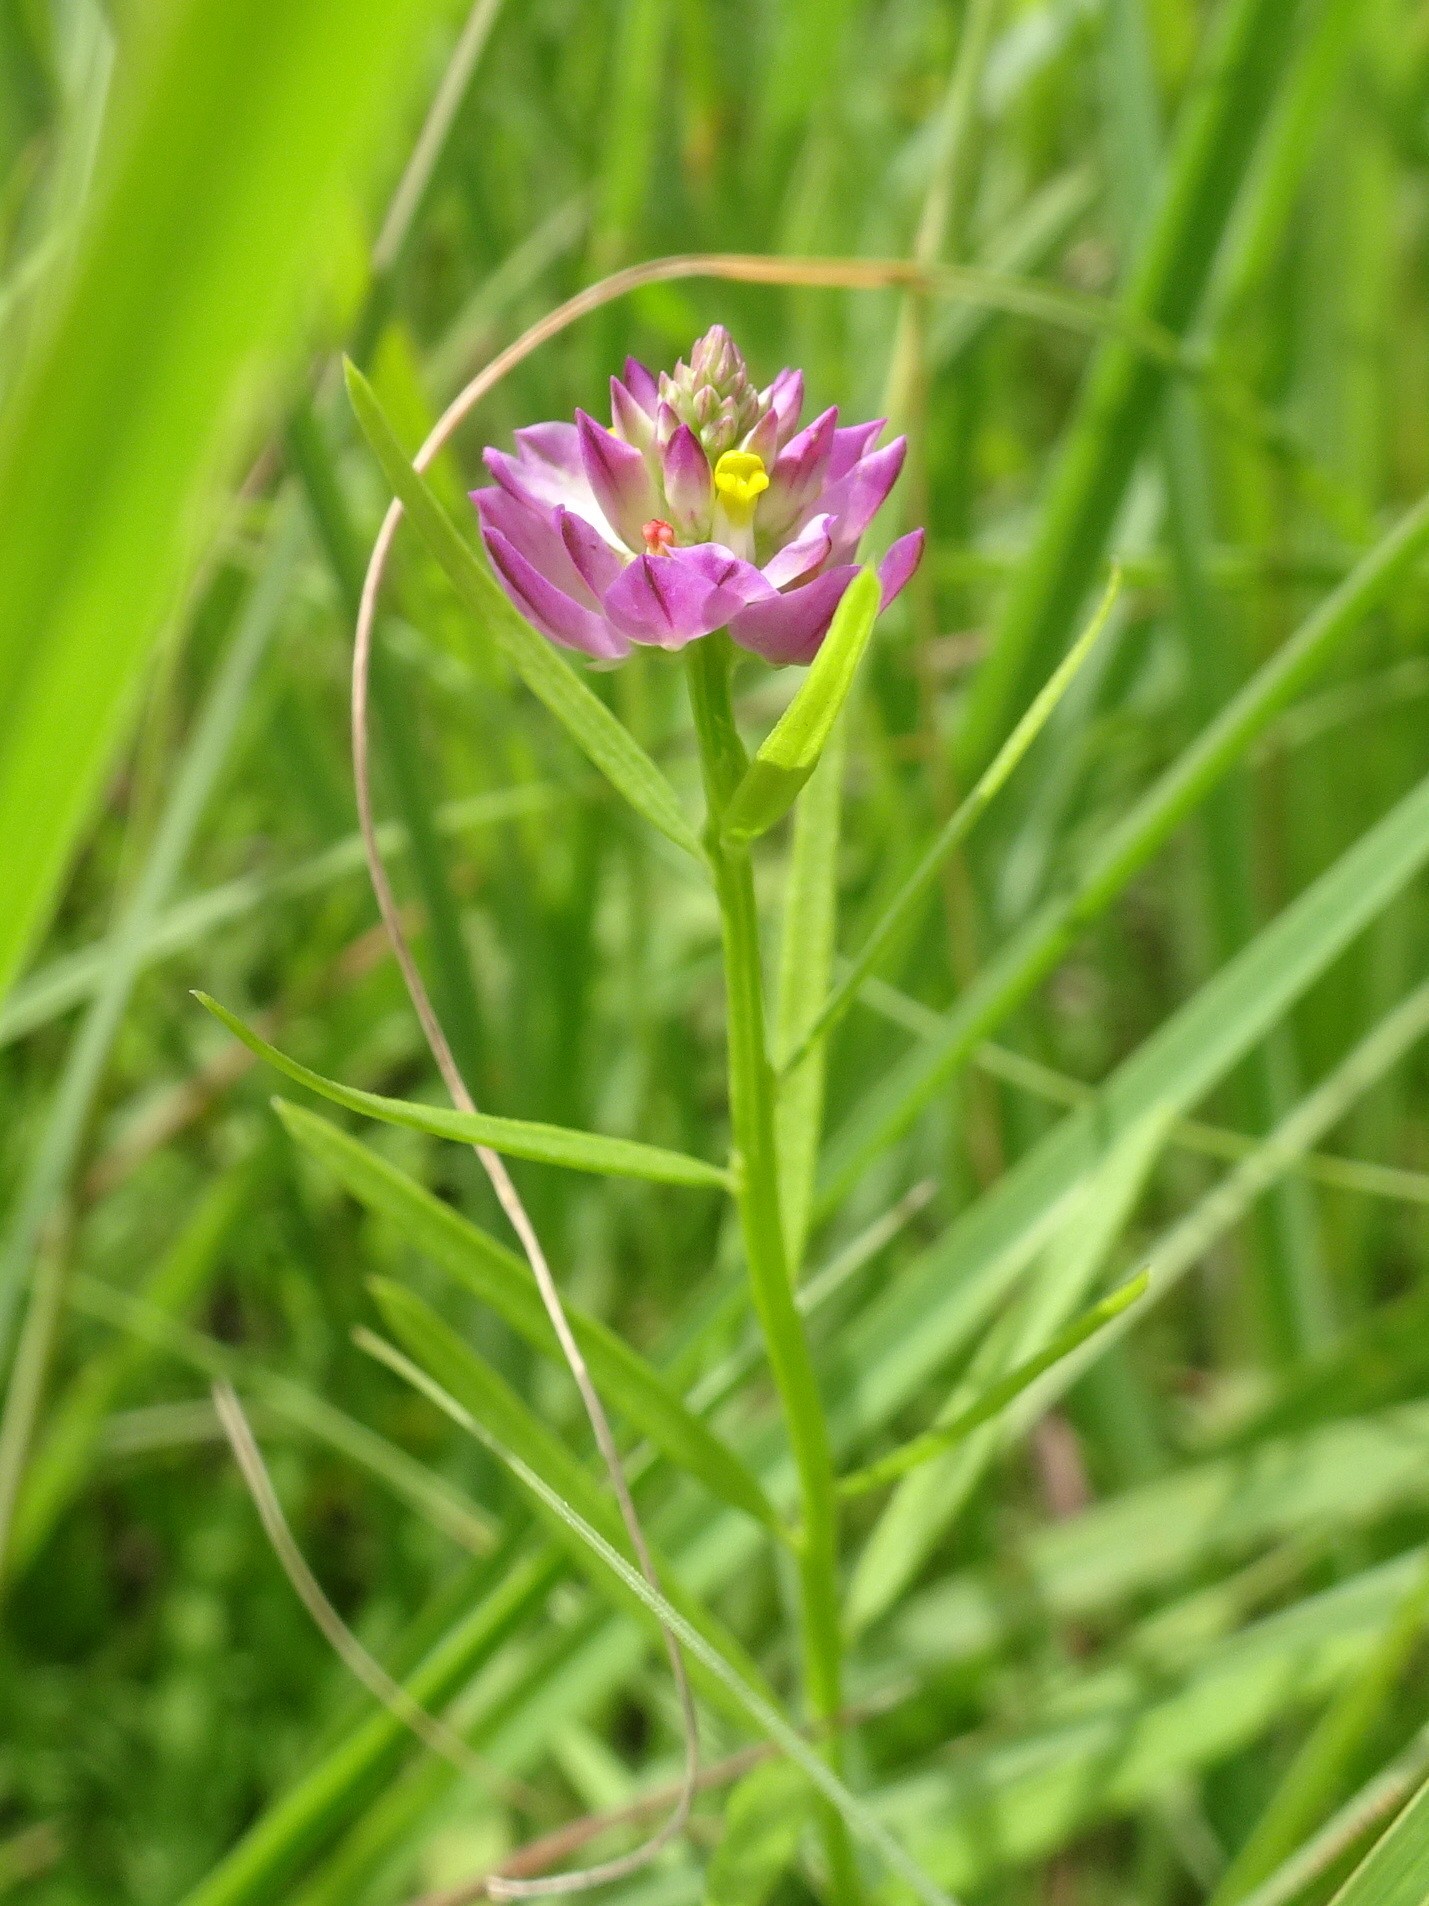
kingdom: Plantae
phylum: Tracheophyta
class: Magnoliopsida
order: Fabales
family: Polygalaceae
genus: Polygala
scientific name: Polygala sanguinea
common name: Blood milkwort
